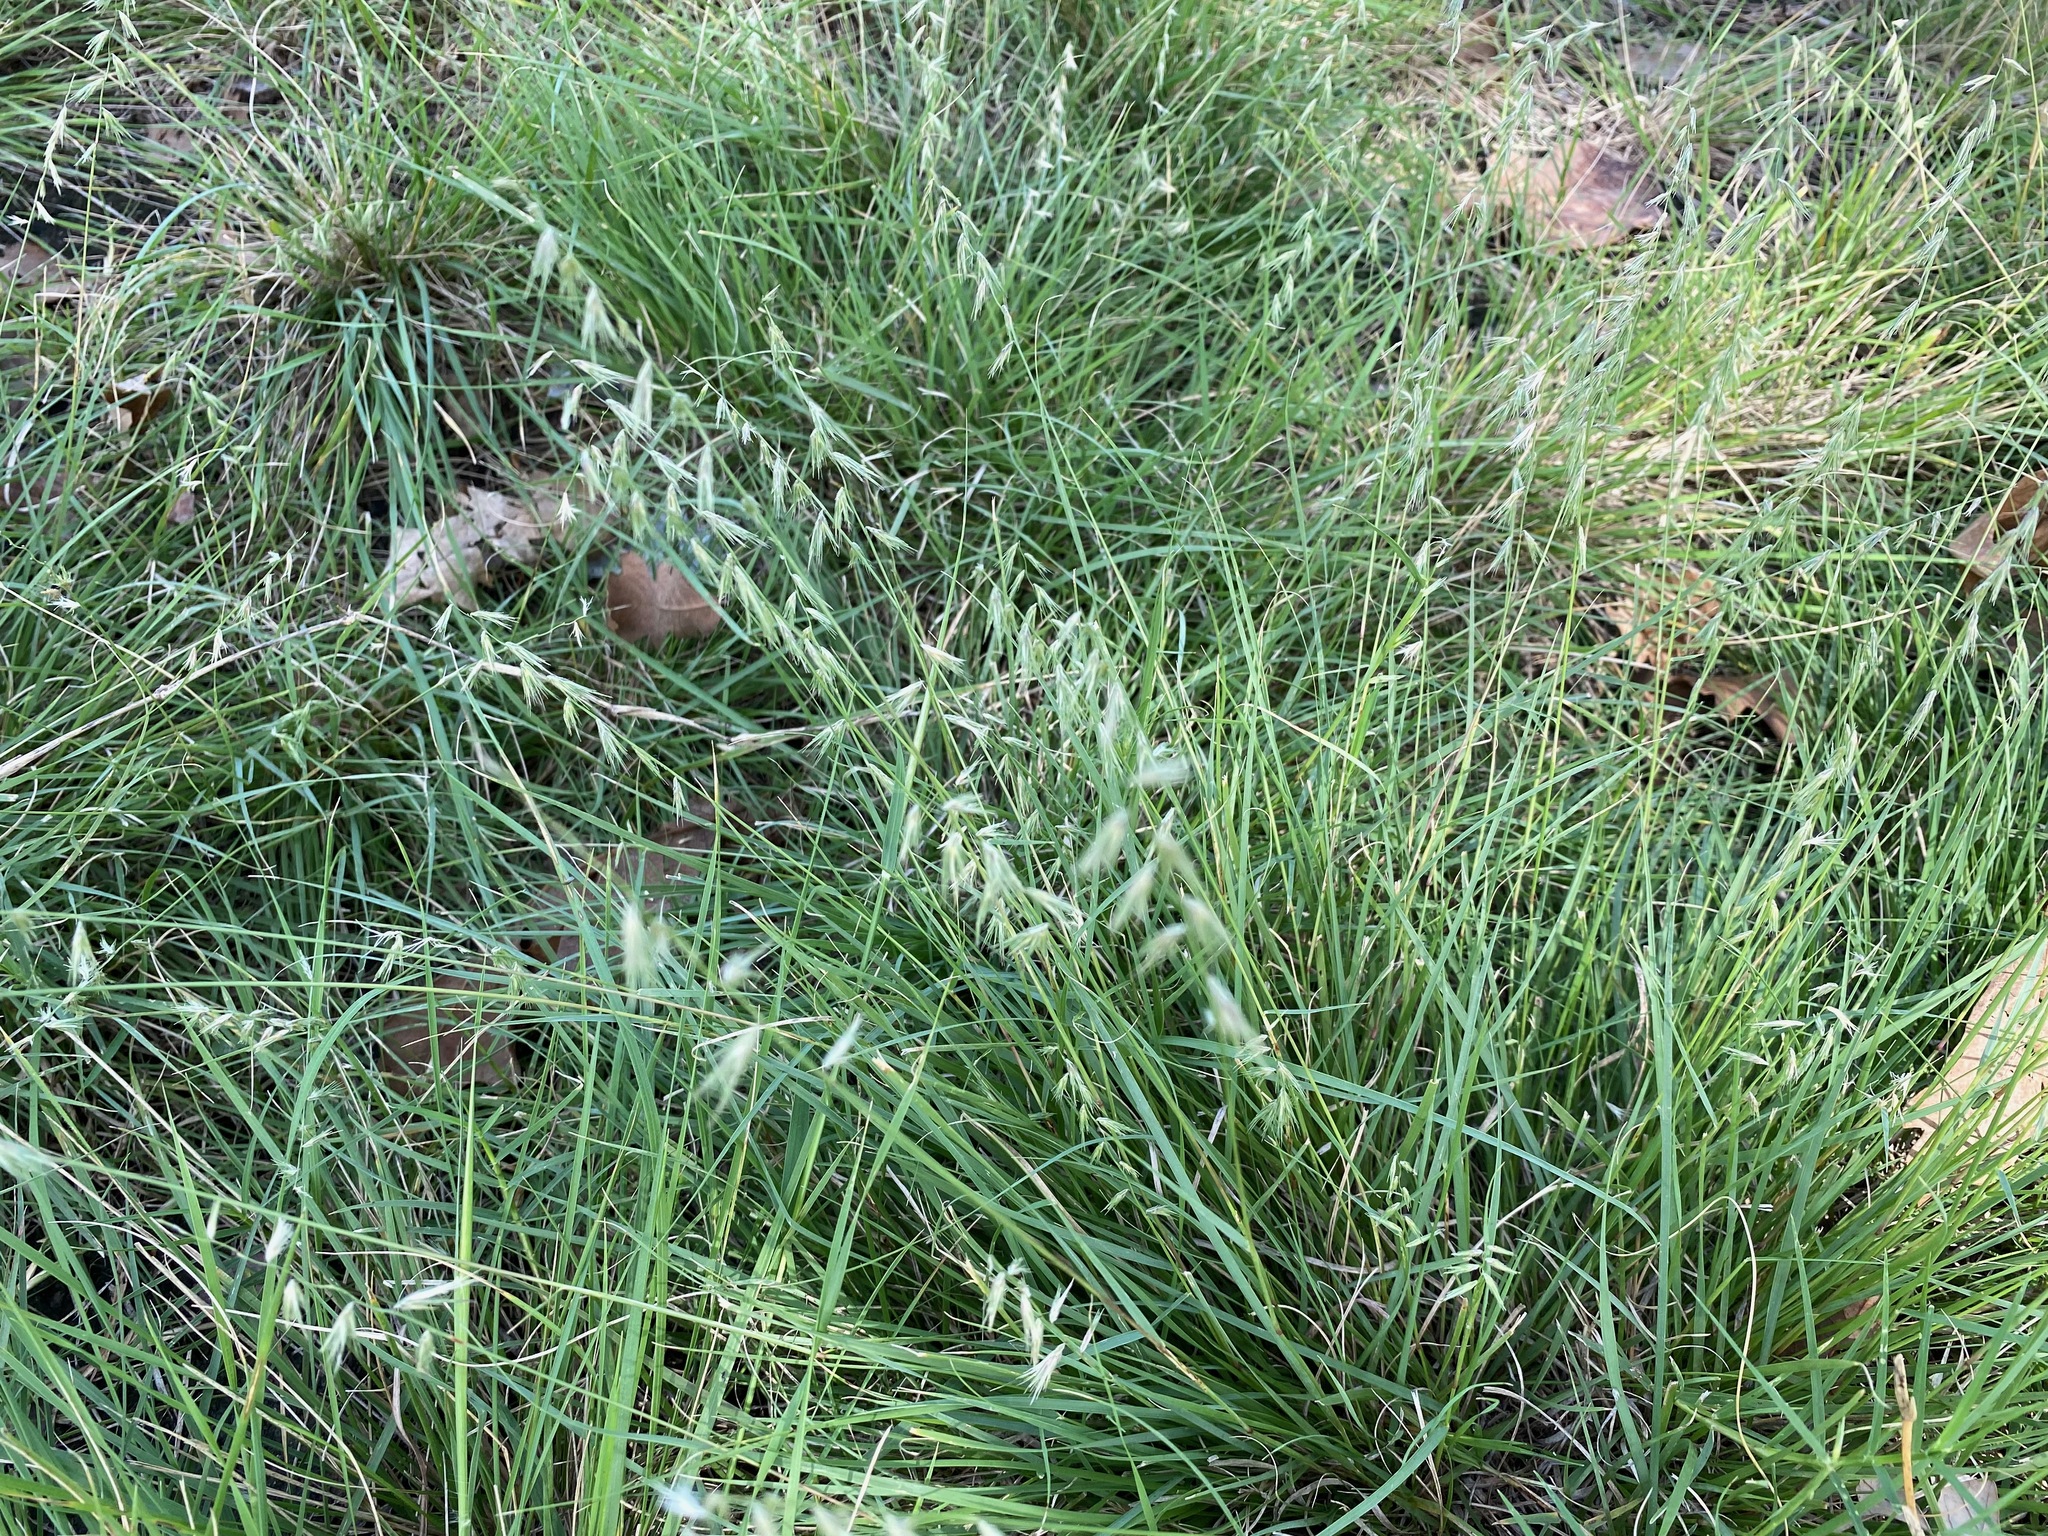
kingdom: Plantae
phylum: Tracheophyta
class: Liliopsida
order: Poales
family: Poaceae
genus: Bouteloua
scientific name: Bouteloua rigidiseta
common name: Texas grama
